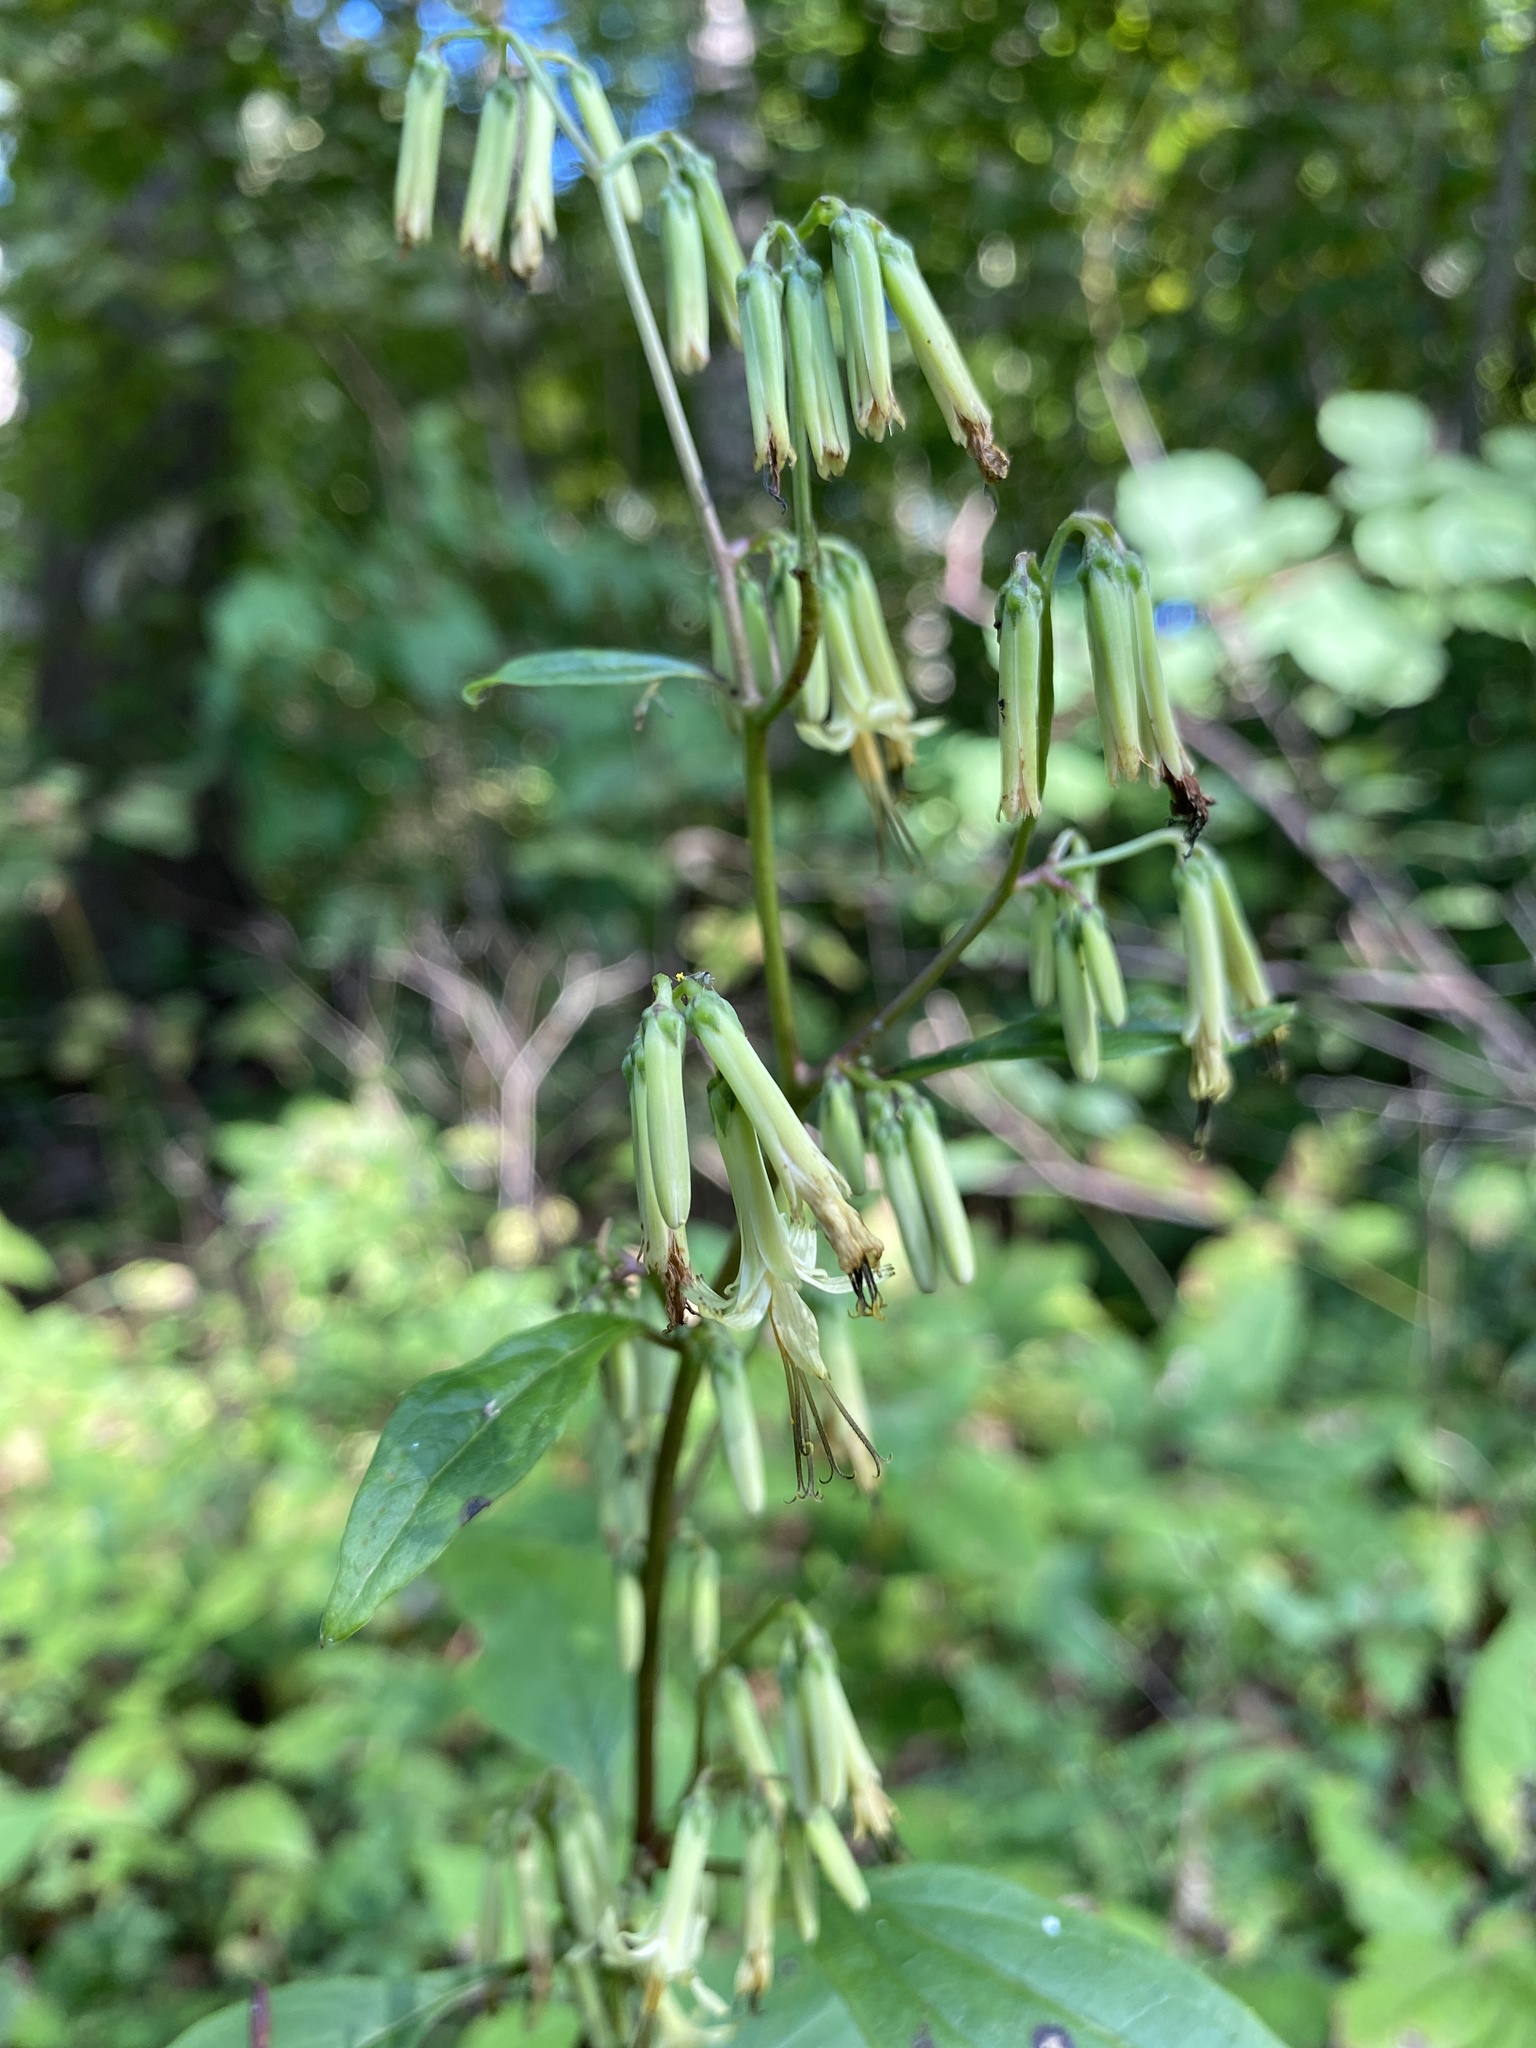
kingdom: Plantae
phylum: Tracheophyta
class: Magnoliopsida
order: Asterales
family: Asteraceae
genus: Nabalus
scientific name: Nabalus altissima
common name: Tall rattlesnakeroot
